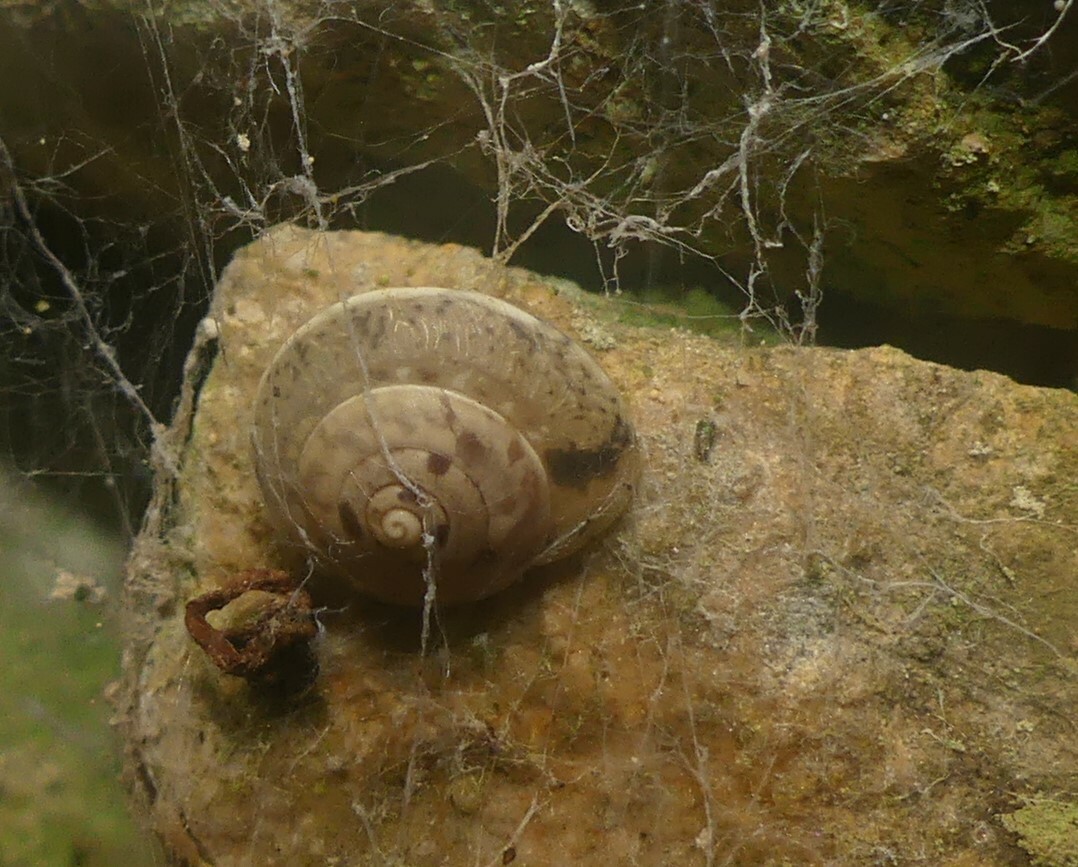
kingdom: Animalia
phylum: Mollusca
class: Gastropoda
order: Stylommatophora
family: Hygromiidae
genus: Hygromia
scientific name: Hygromia cinctella
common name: Girdled snail
